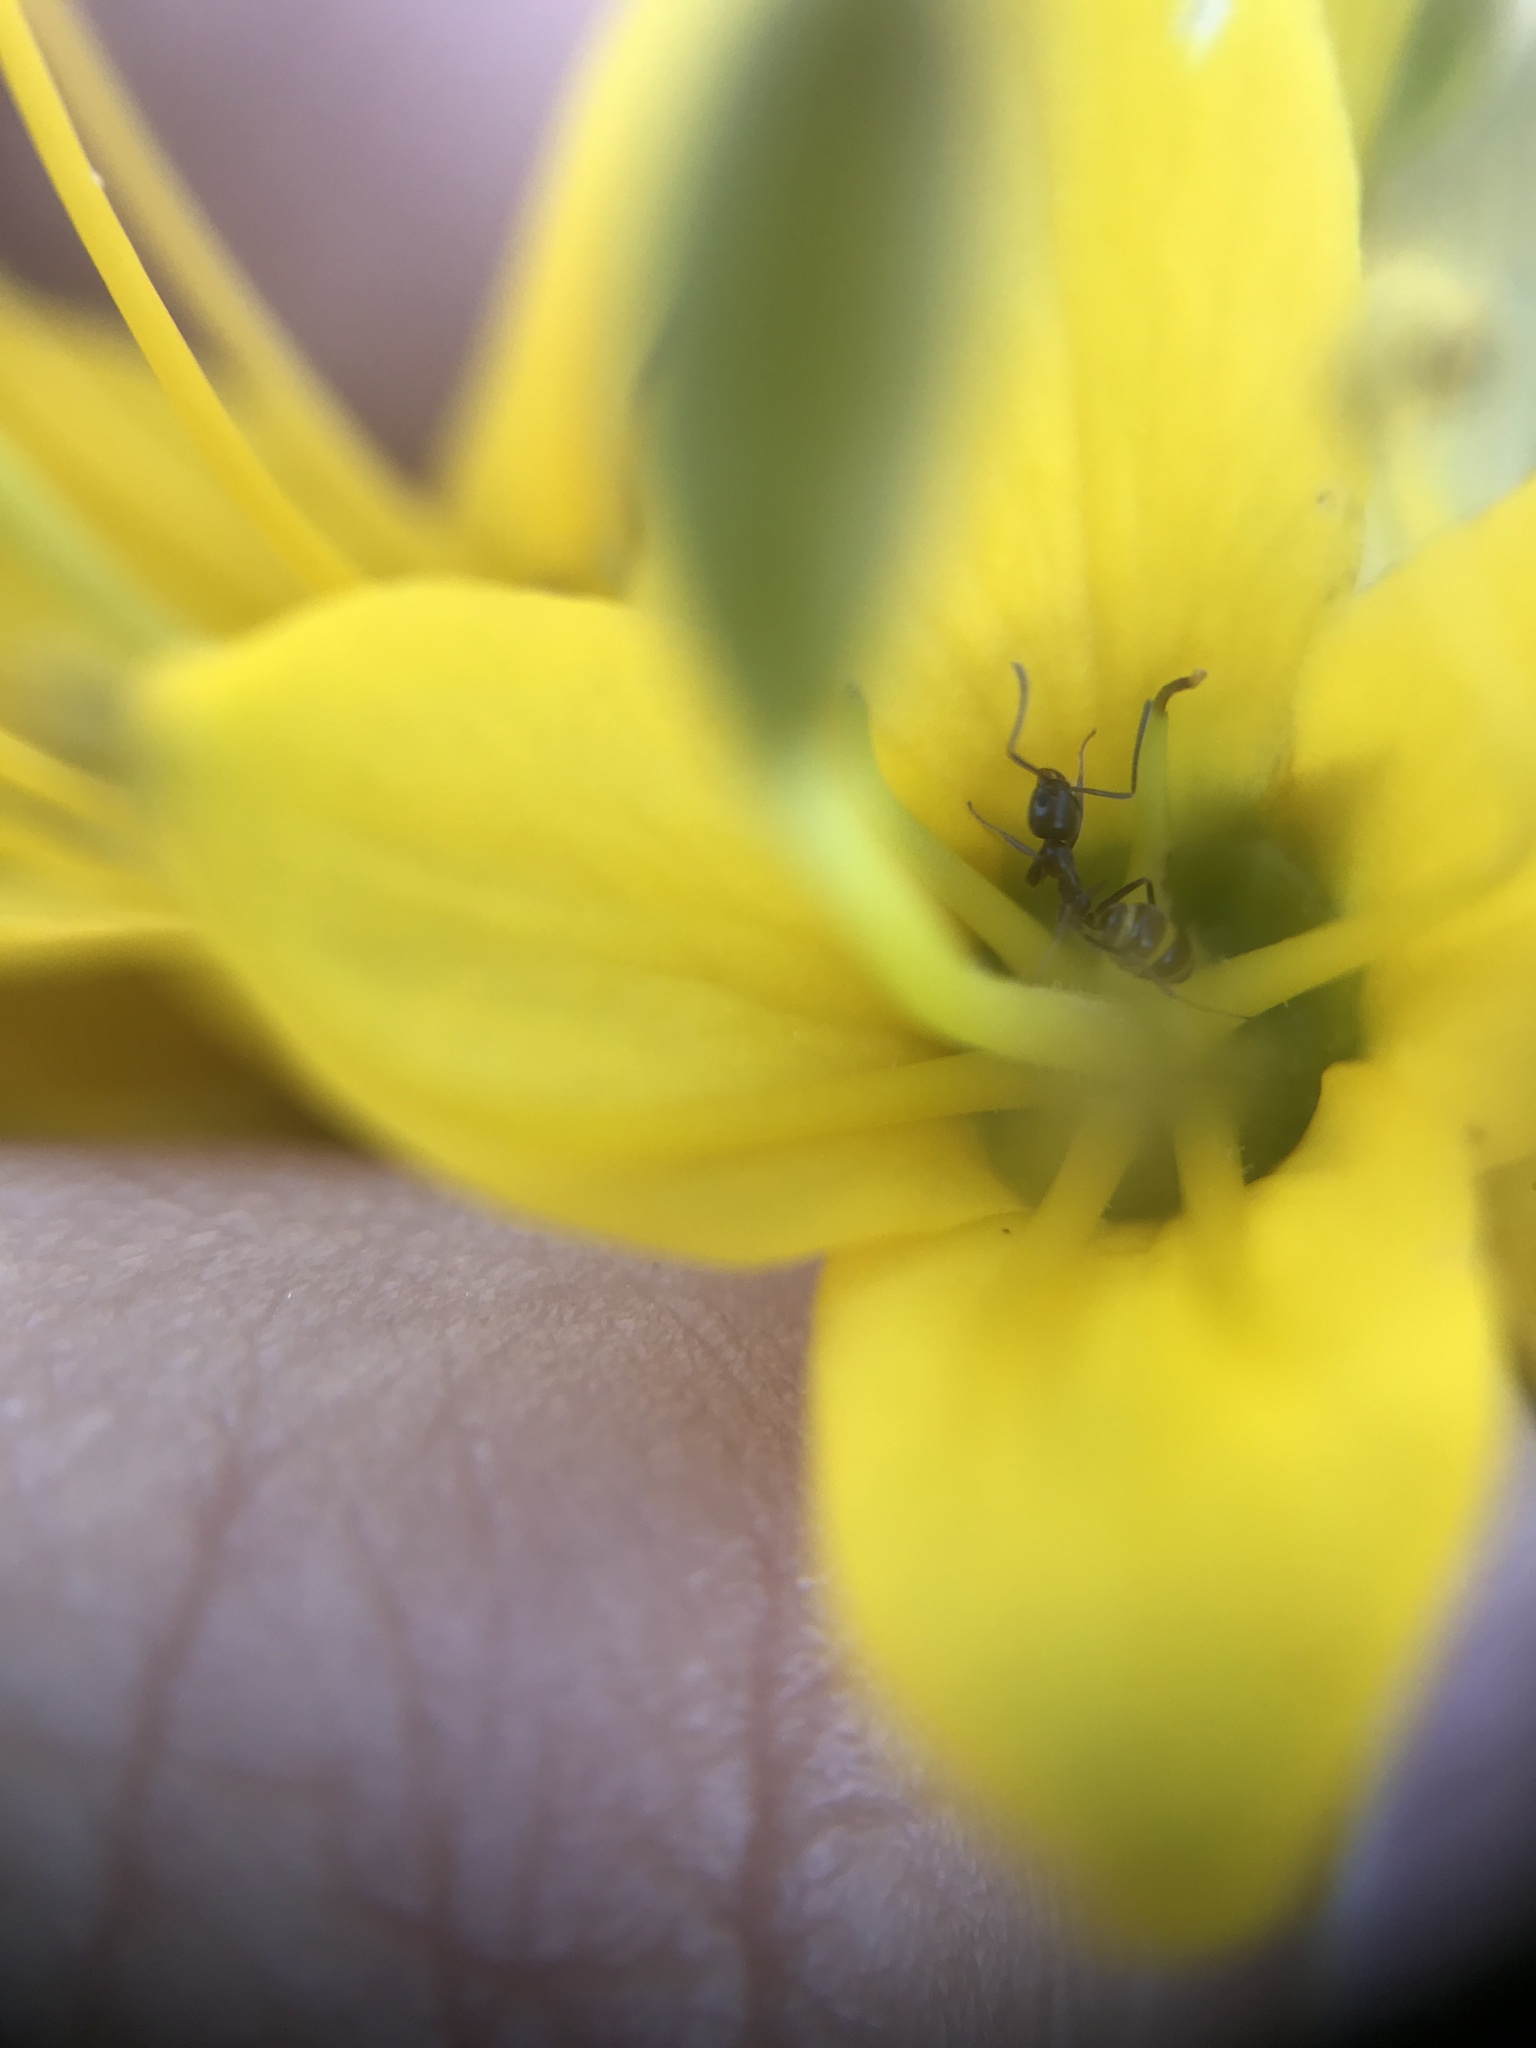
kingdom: Animalia
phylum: Arthropoda
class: Insecta
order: Hymenoptera
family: Formicidae
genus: Linepithema
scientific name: Linepithema humile
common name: Argentine ant
